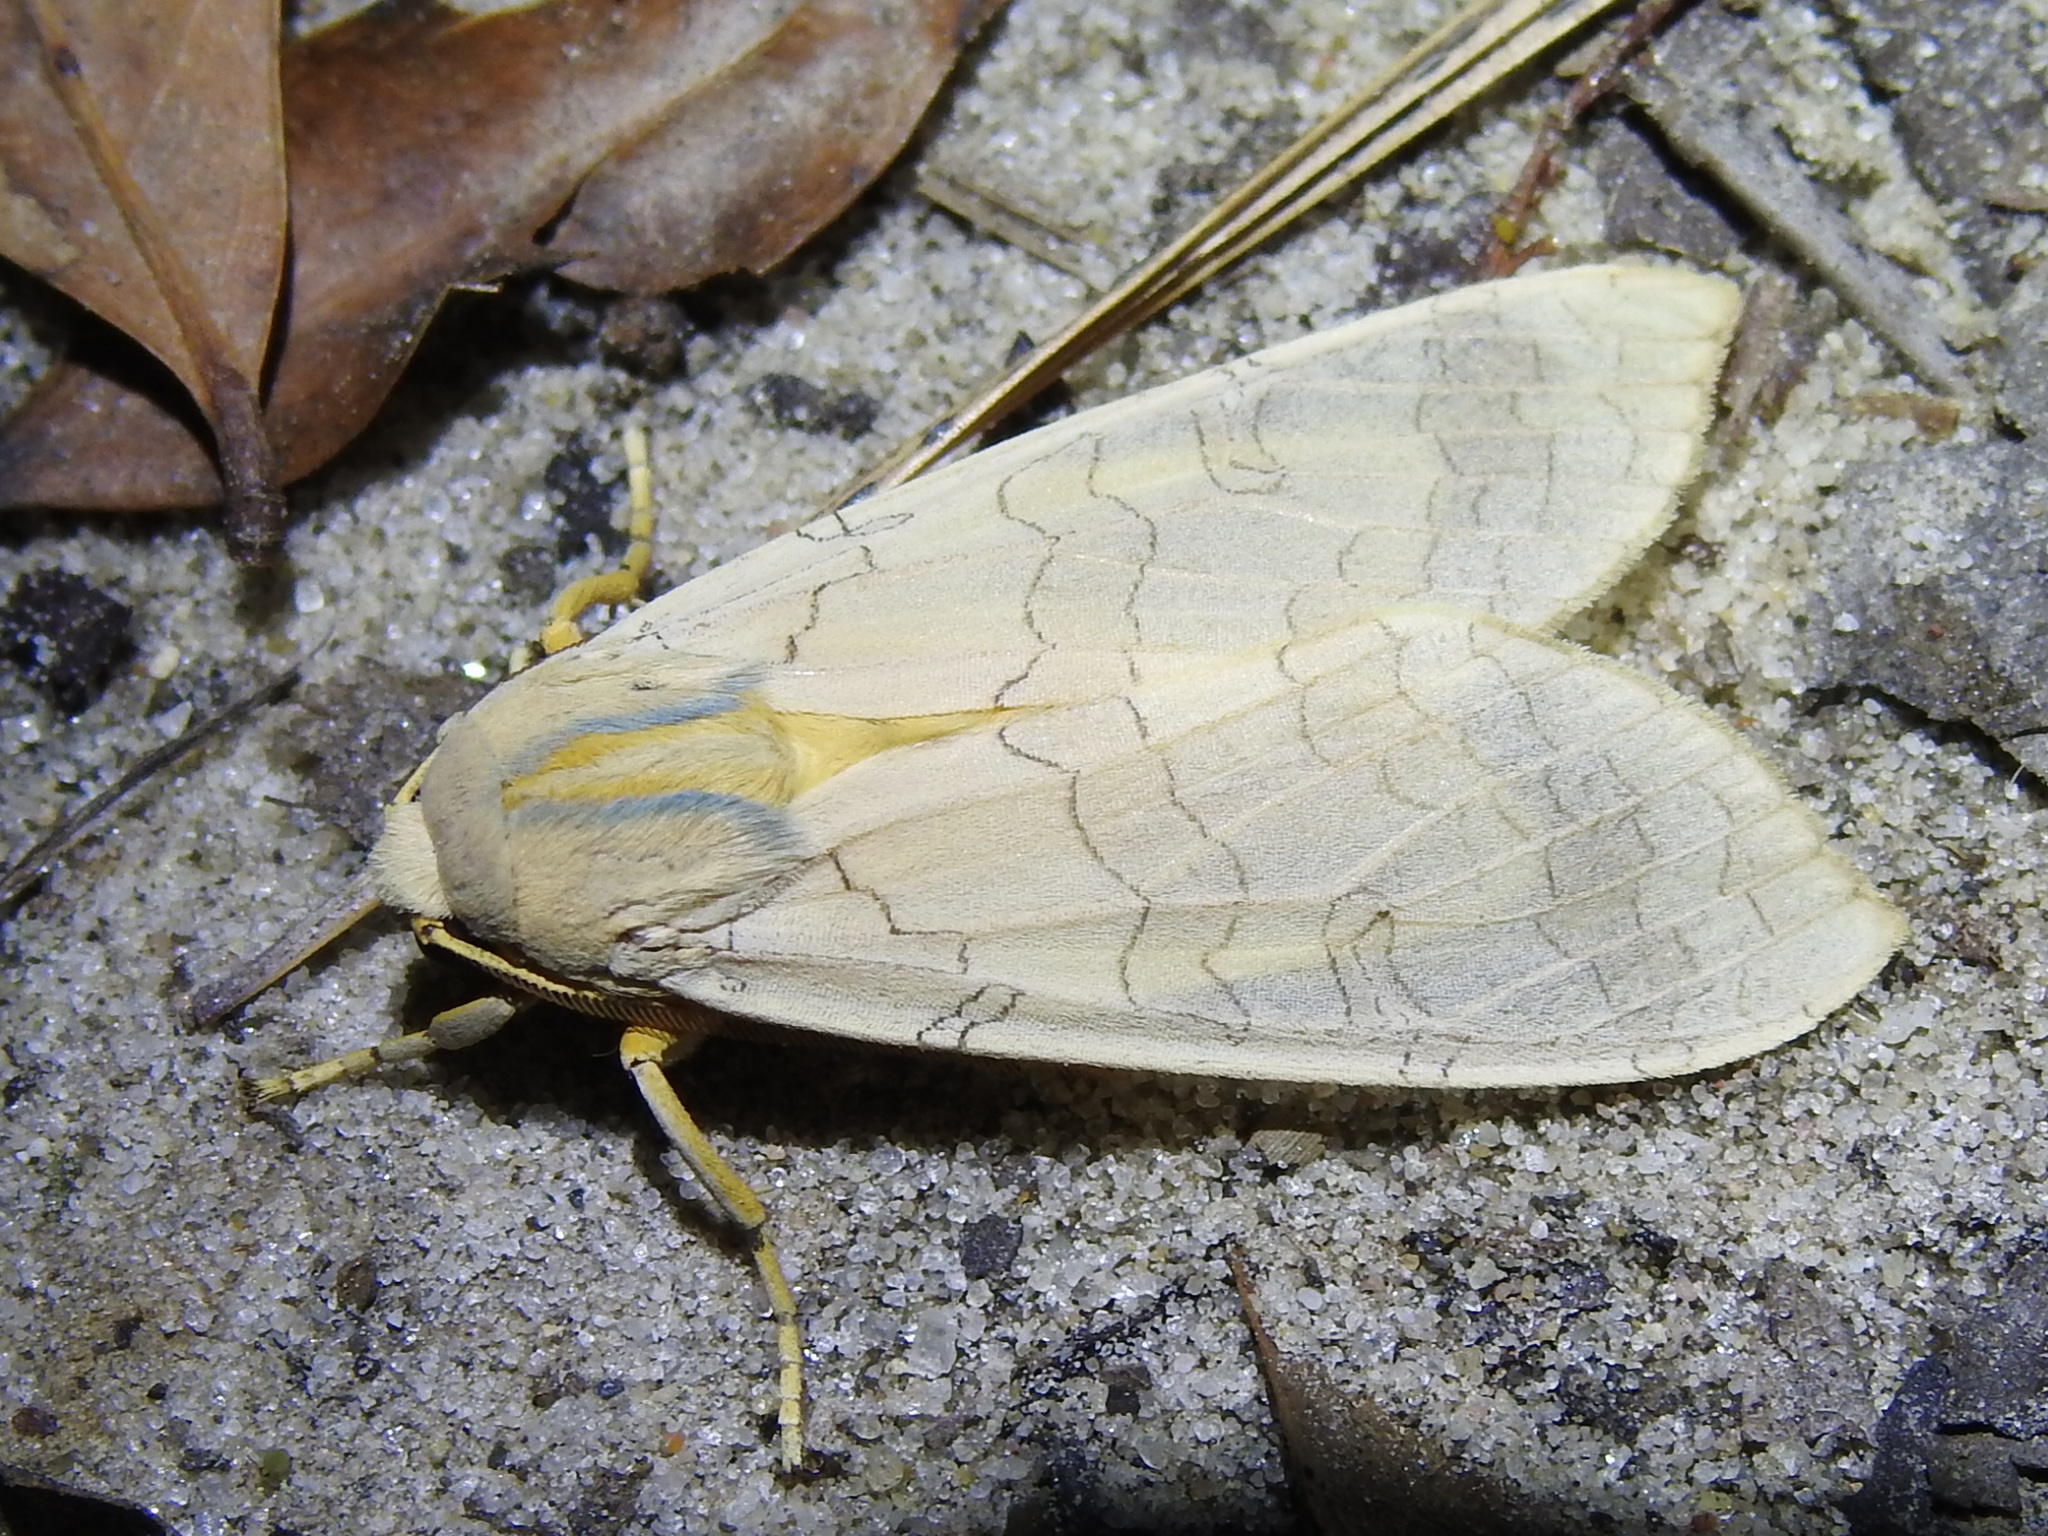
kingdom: Animalia
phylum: Arthropoda
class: Insecta
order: Lepidoptera
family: Erebidae
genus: Halysidota
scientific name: Halysidota
